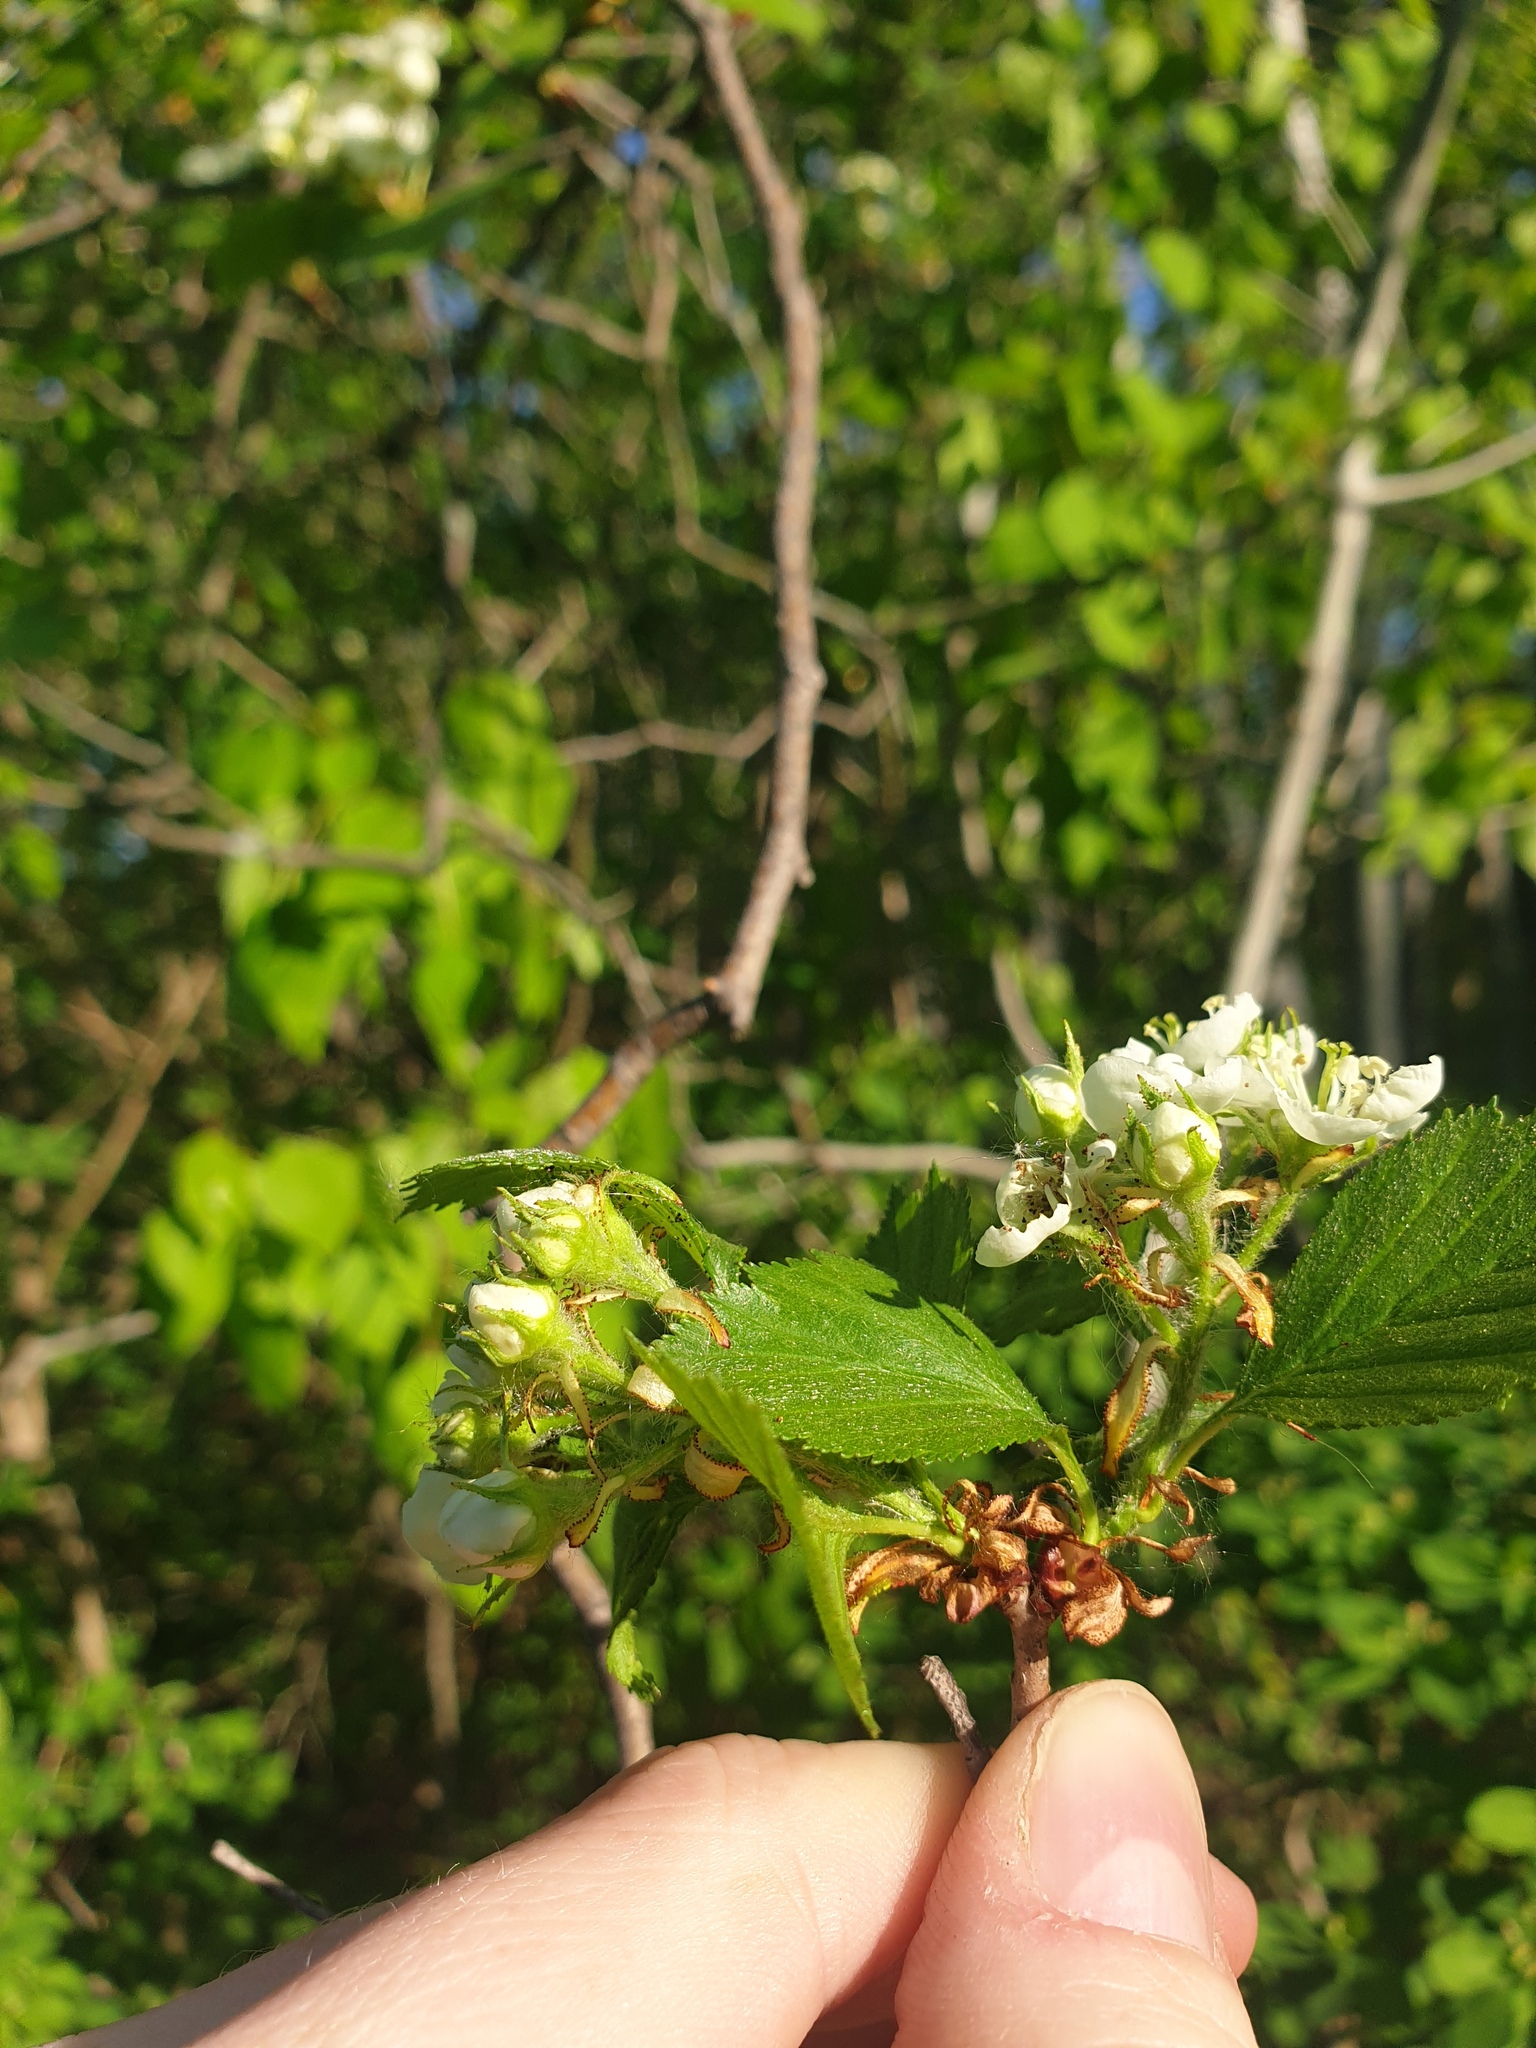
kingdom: Plantae
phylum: Tracheophyta
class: Magnoliopsida
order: Rosales
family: Rosaceae
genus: Crataegus
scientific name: Crataegus chrysocarpa
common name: Fire-berry hawthorn
